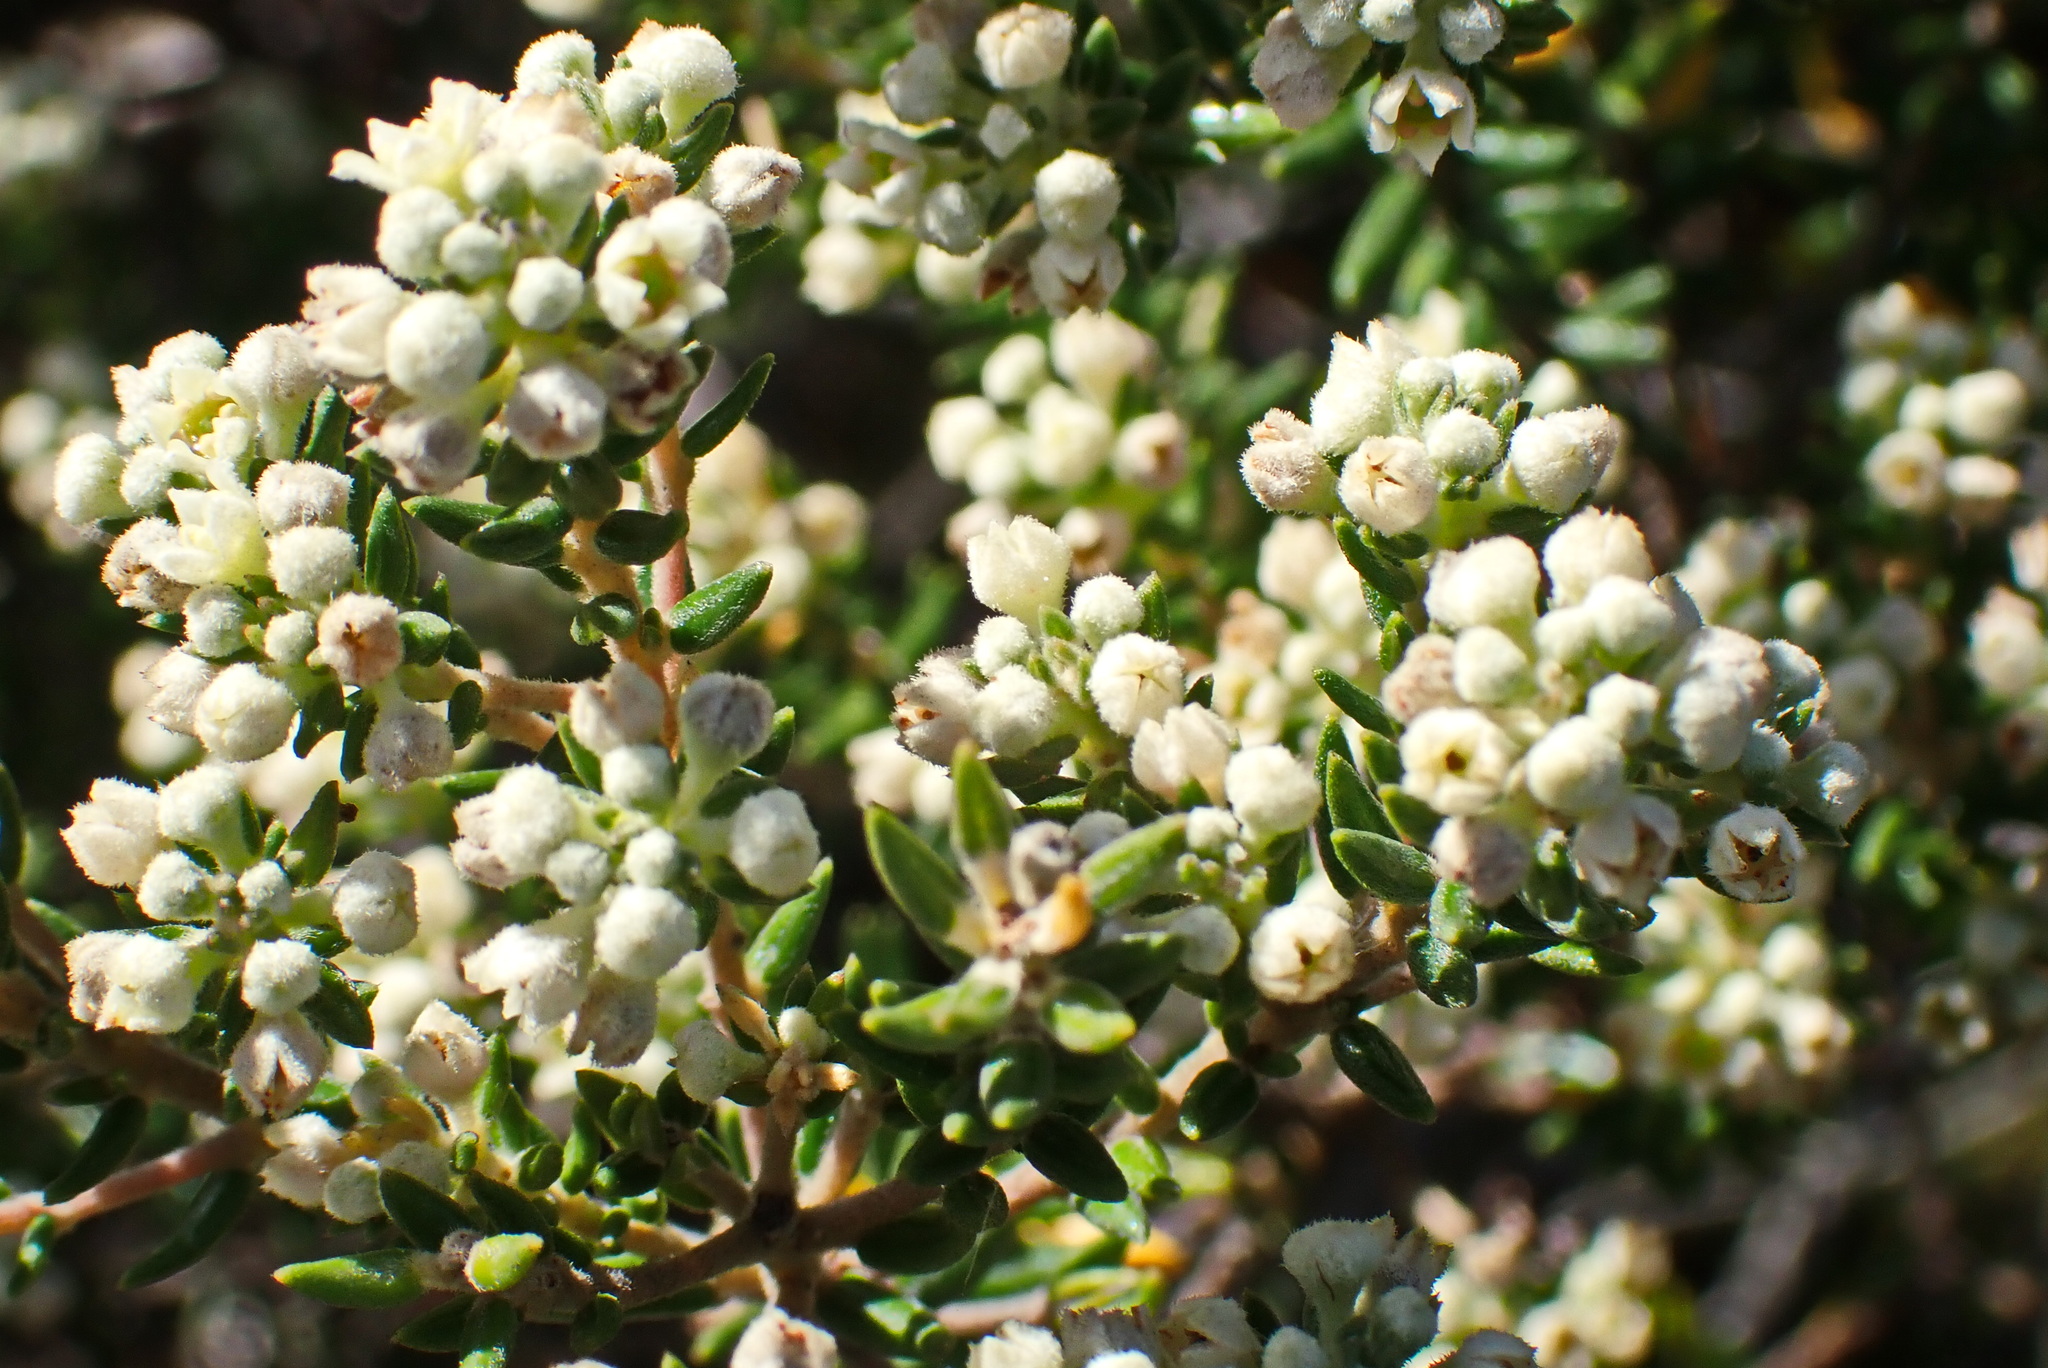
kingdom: Plantae
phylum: Tracheophyta
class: Magnoliopsida
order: Rosales
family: Rhamnaceae
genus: Phylica
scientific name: Phylica axillaris
